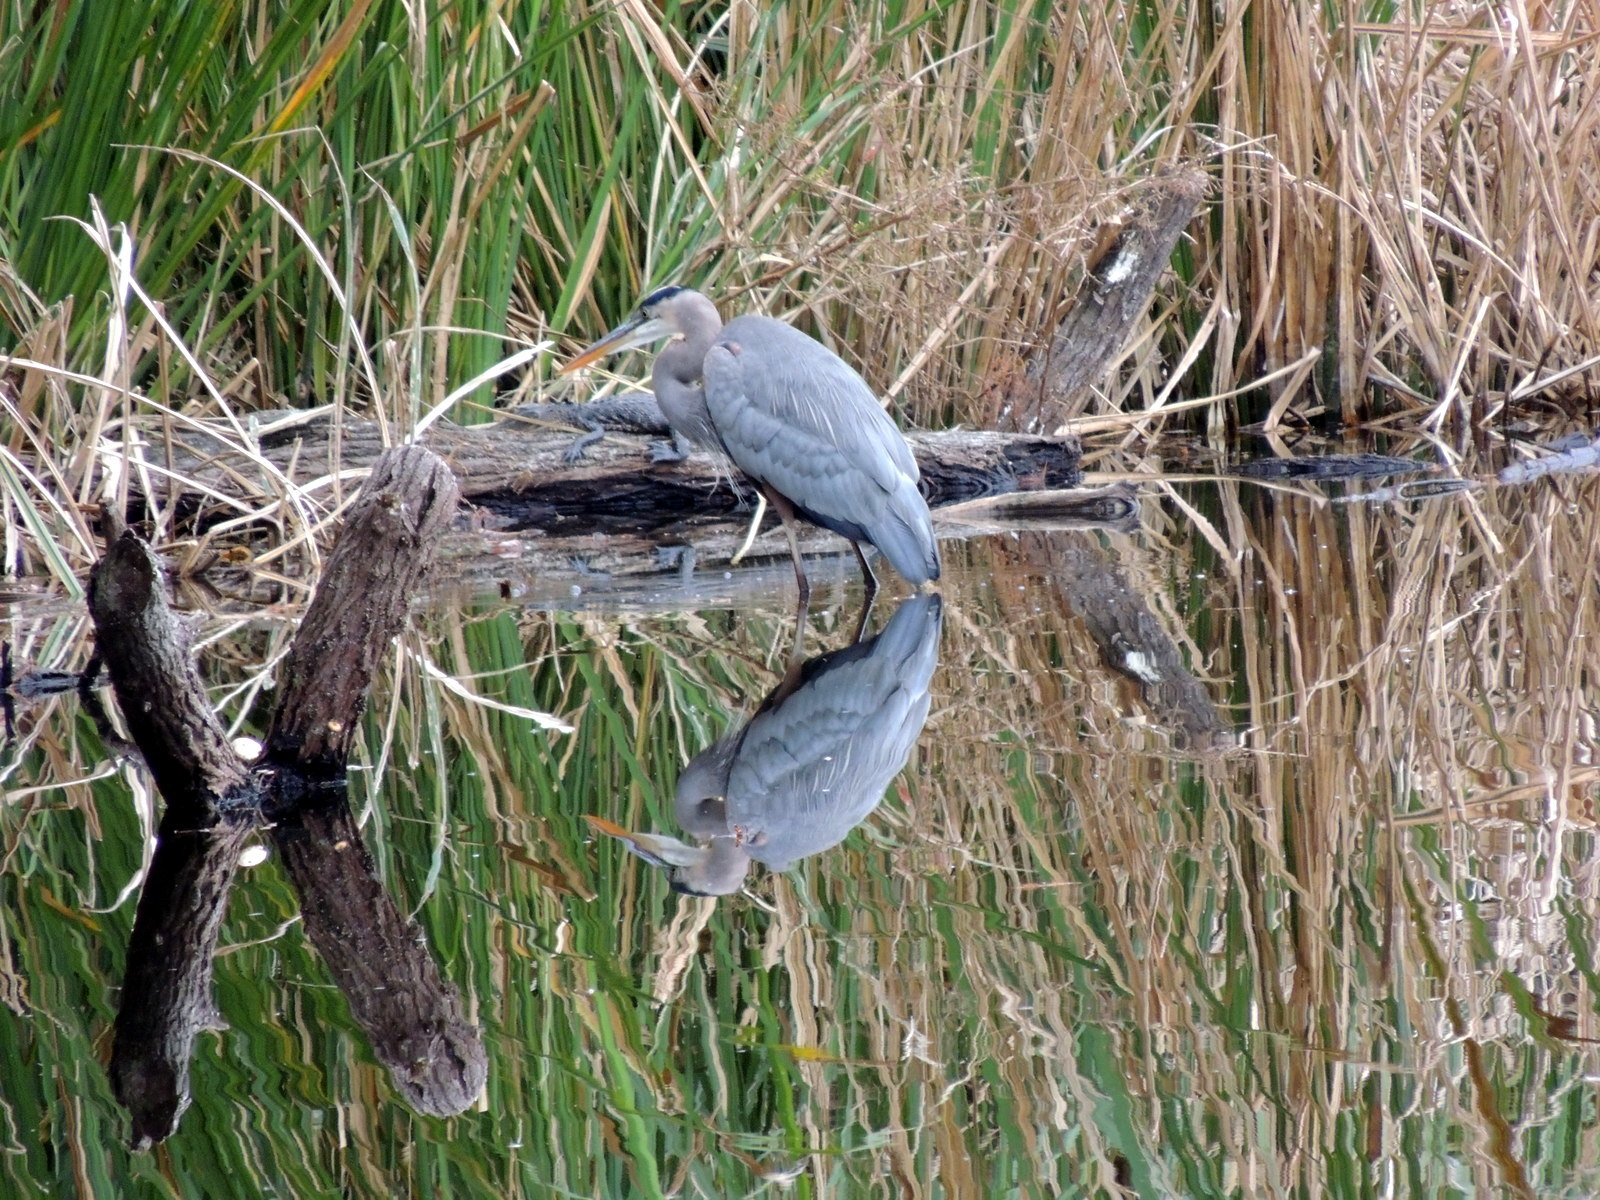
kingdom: Animalia
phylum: Chordata
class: Aves
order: Pelecaniformes
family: Ardeidae
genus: Ardea
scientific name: Ardea herodias
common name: Great blue heron
